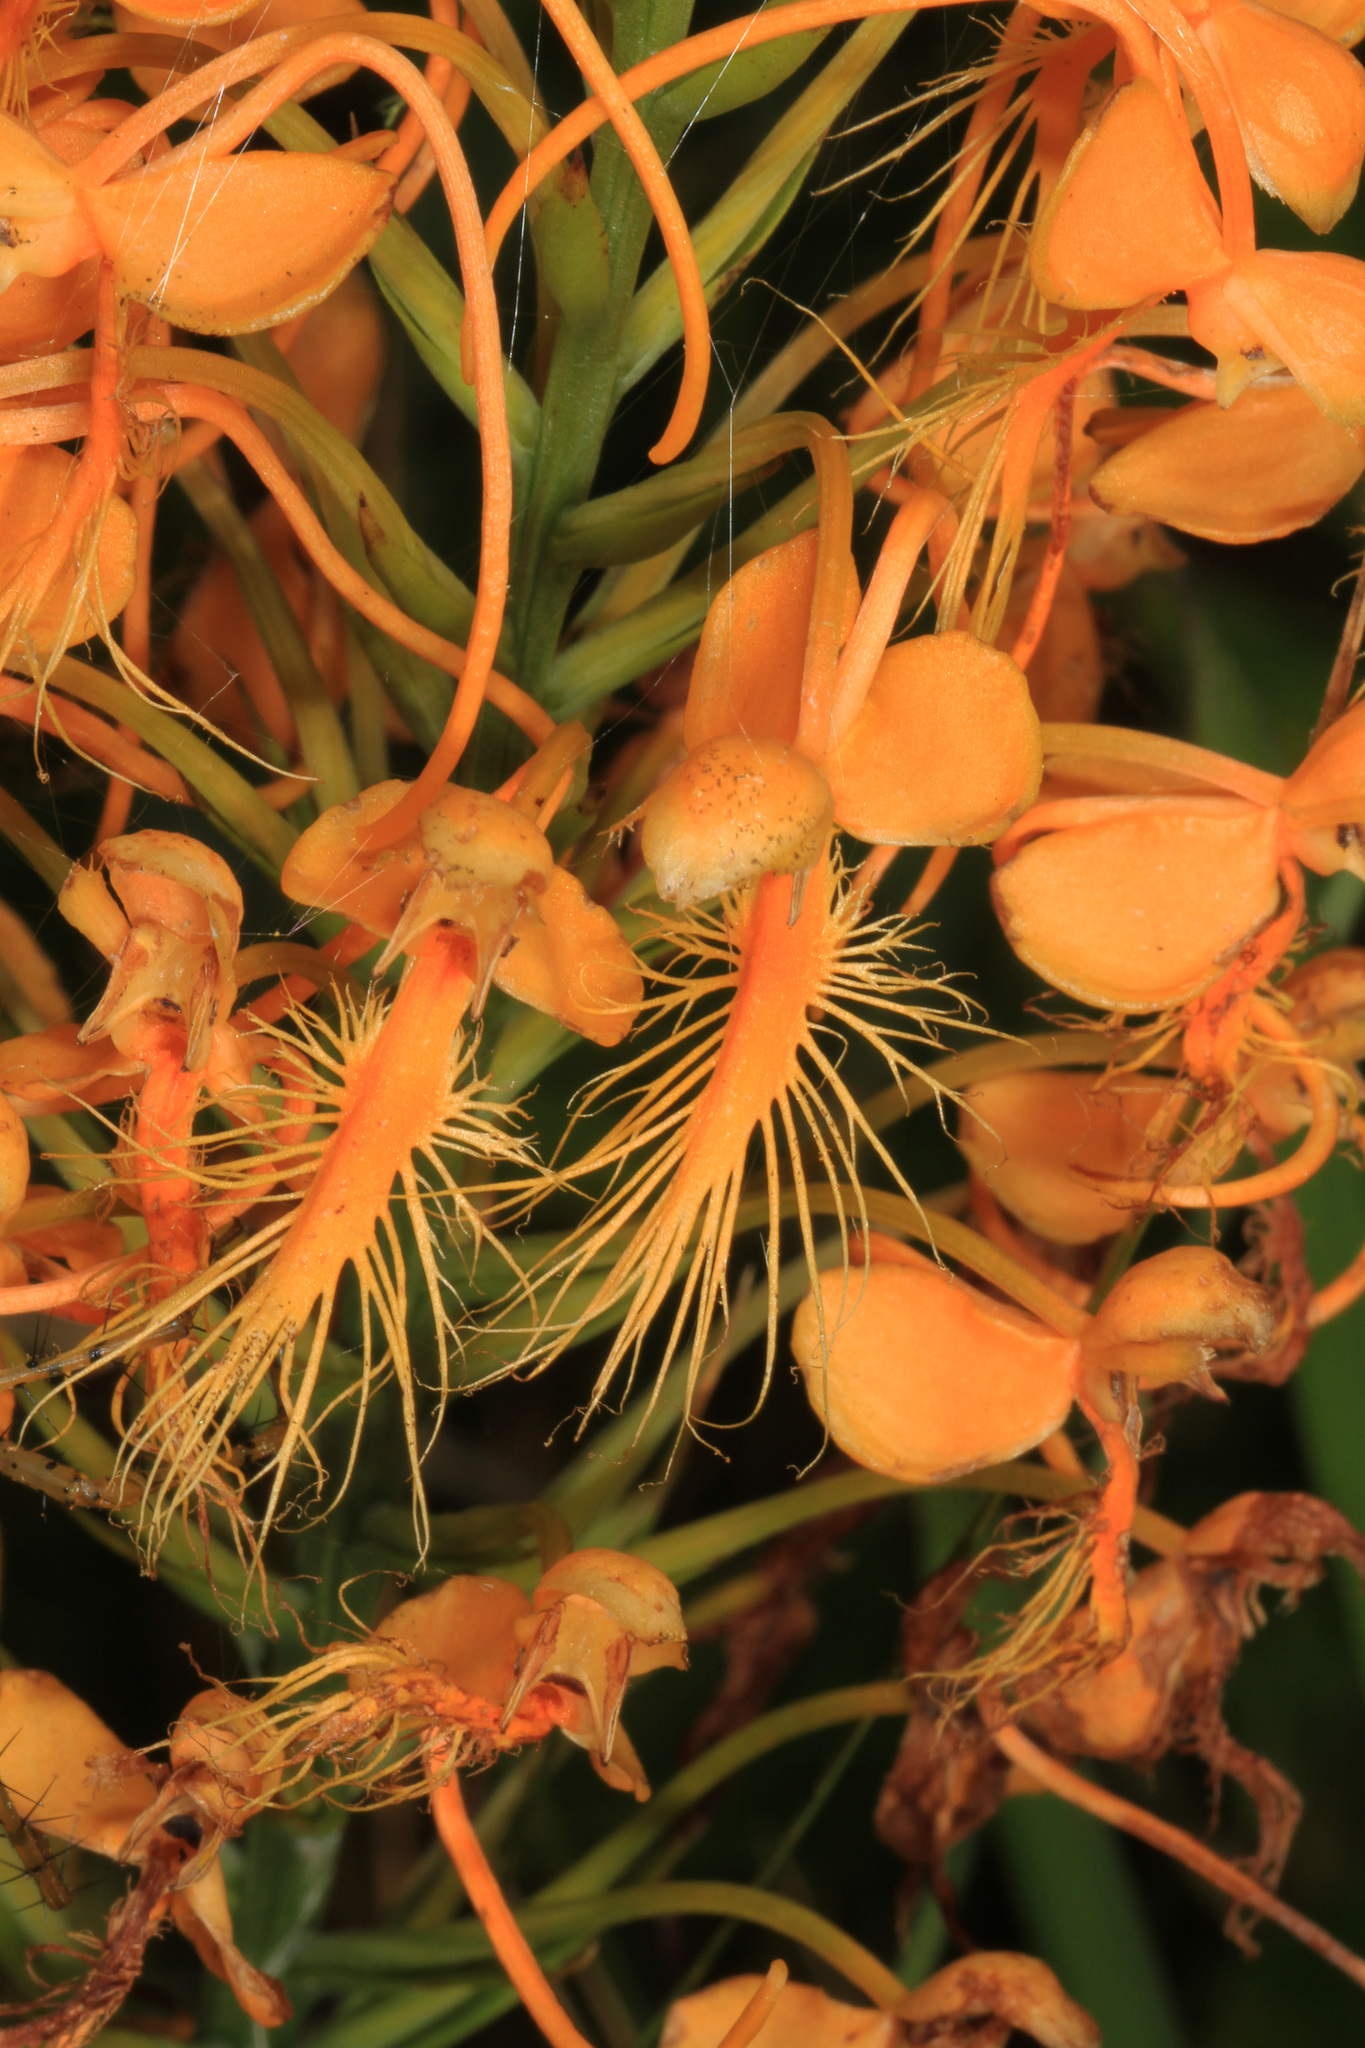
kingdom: Plantae
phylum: Tracheophyta
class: Liliopsida
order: Asparagales
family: Orchidaceae
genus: Platanthera
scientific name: Platanthera ciliaris
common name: Yellow fringed orchid
